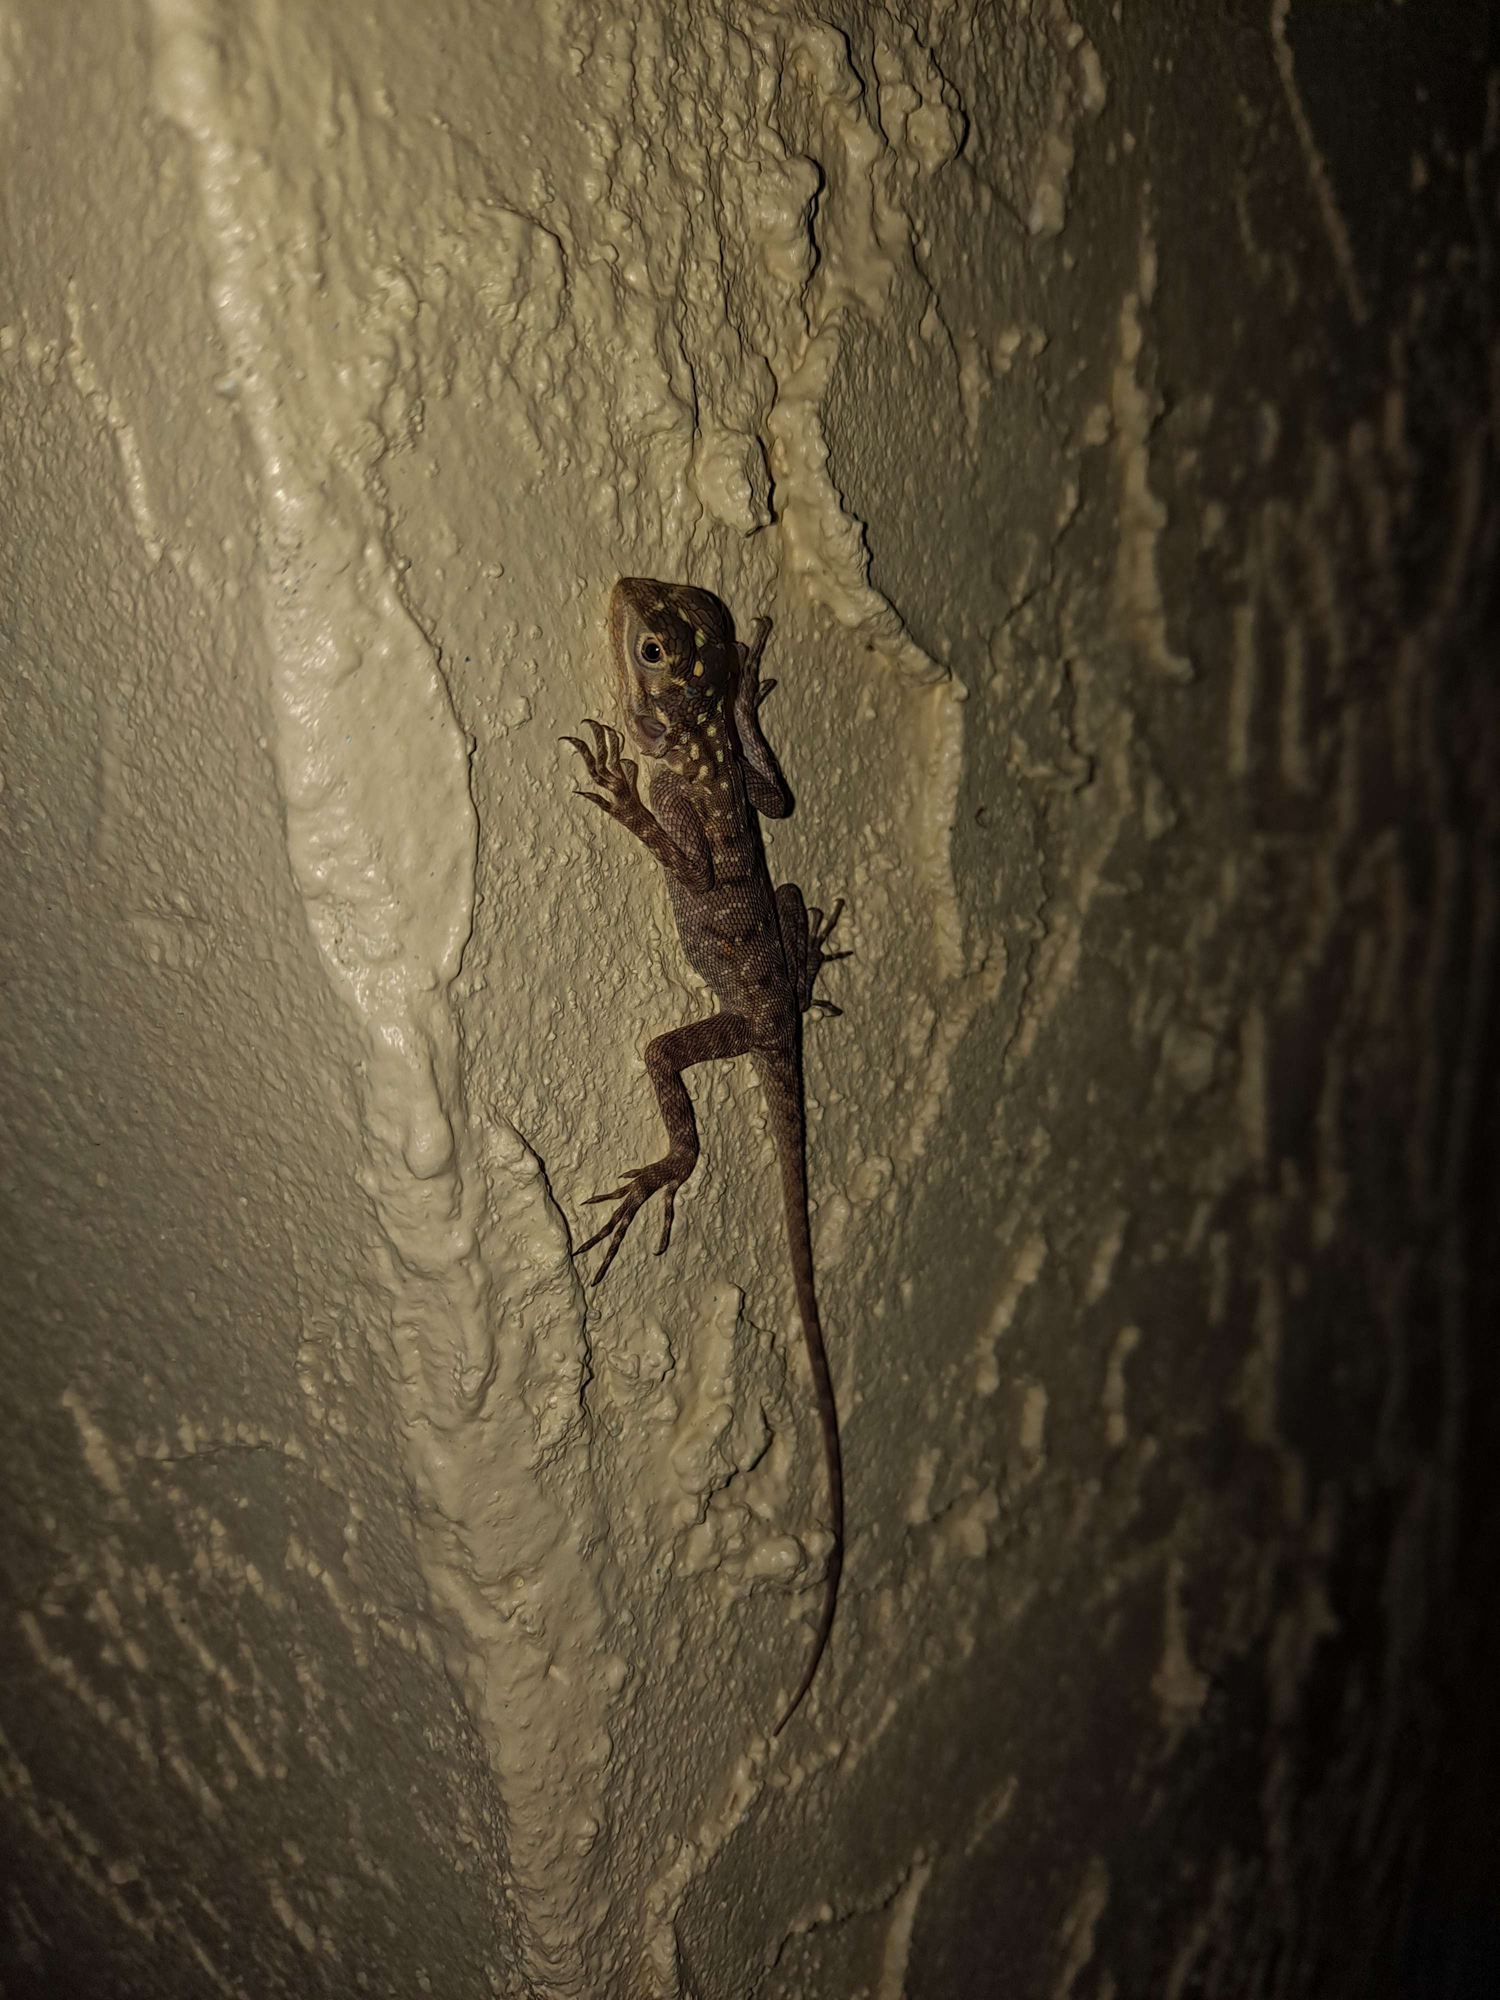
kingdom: Animalia
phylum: Chordata
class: Squamata
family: Agamidae
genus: Agama
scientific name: Agama picticauda
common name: Red-headed agama
